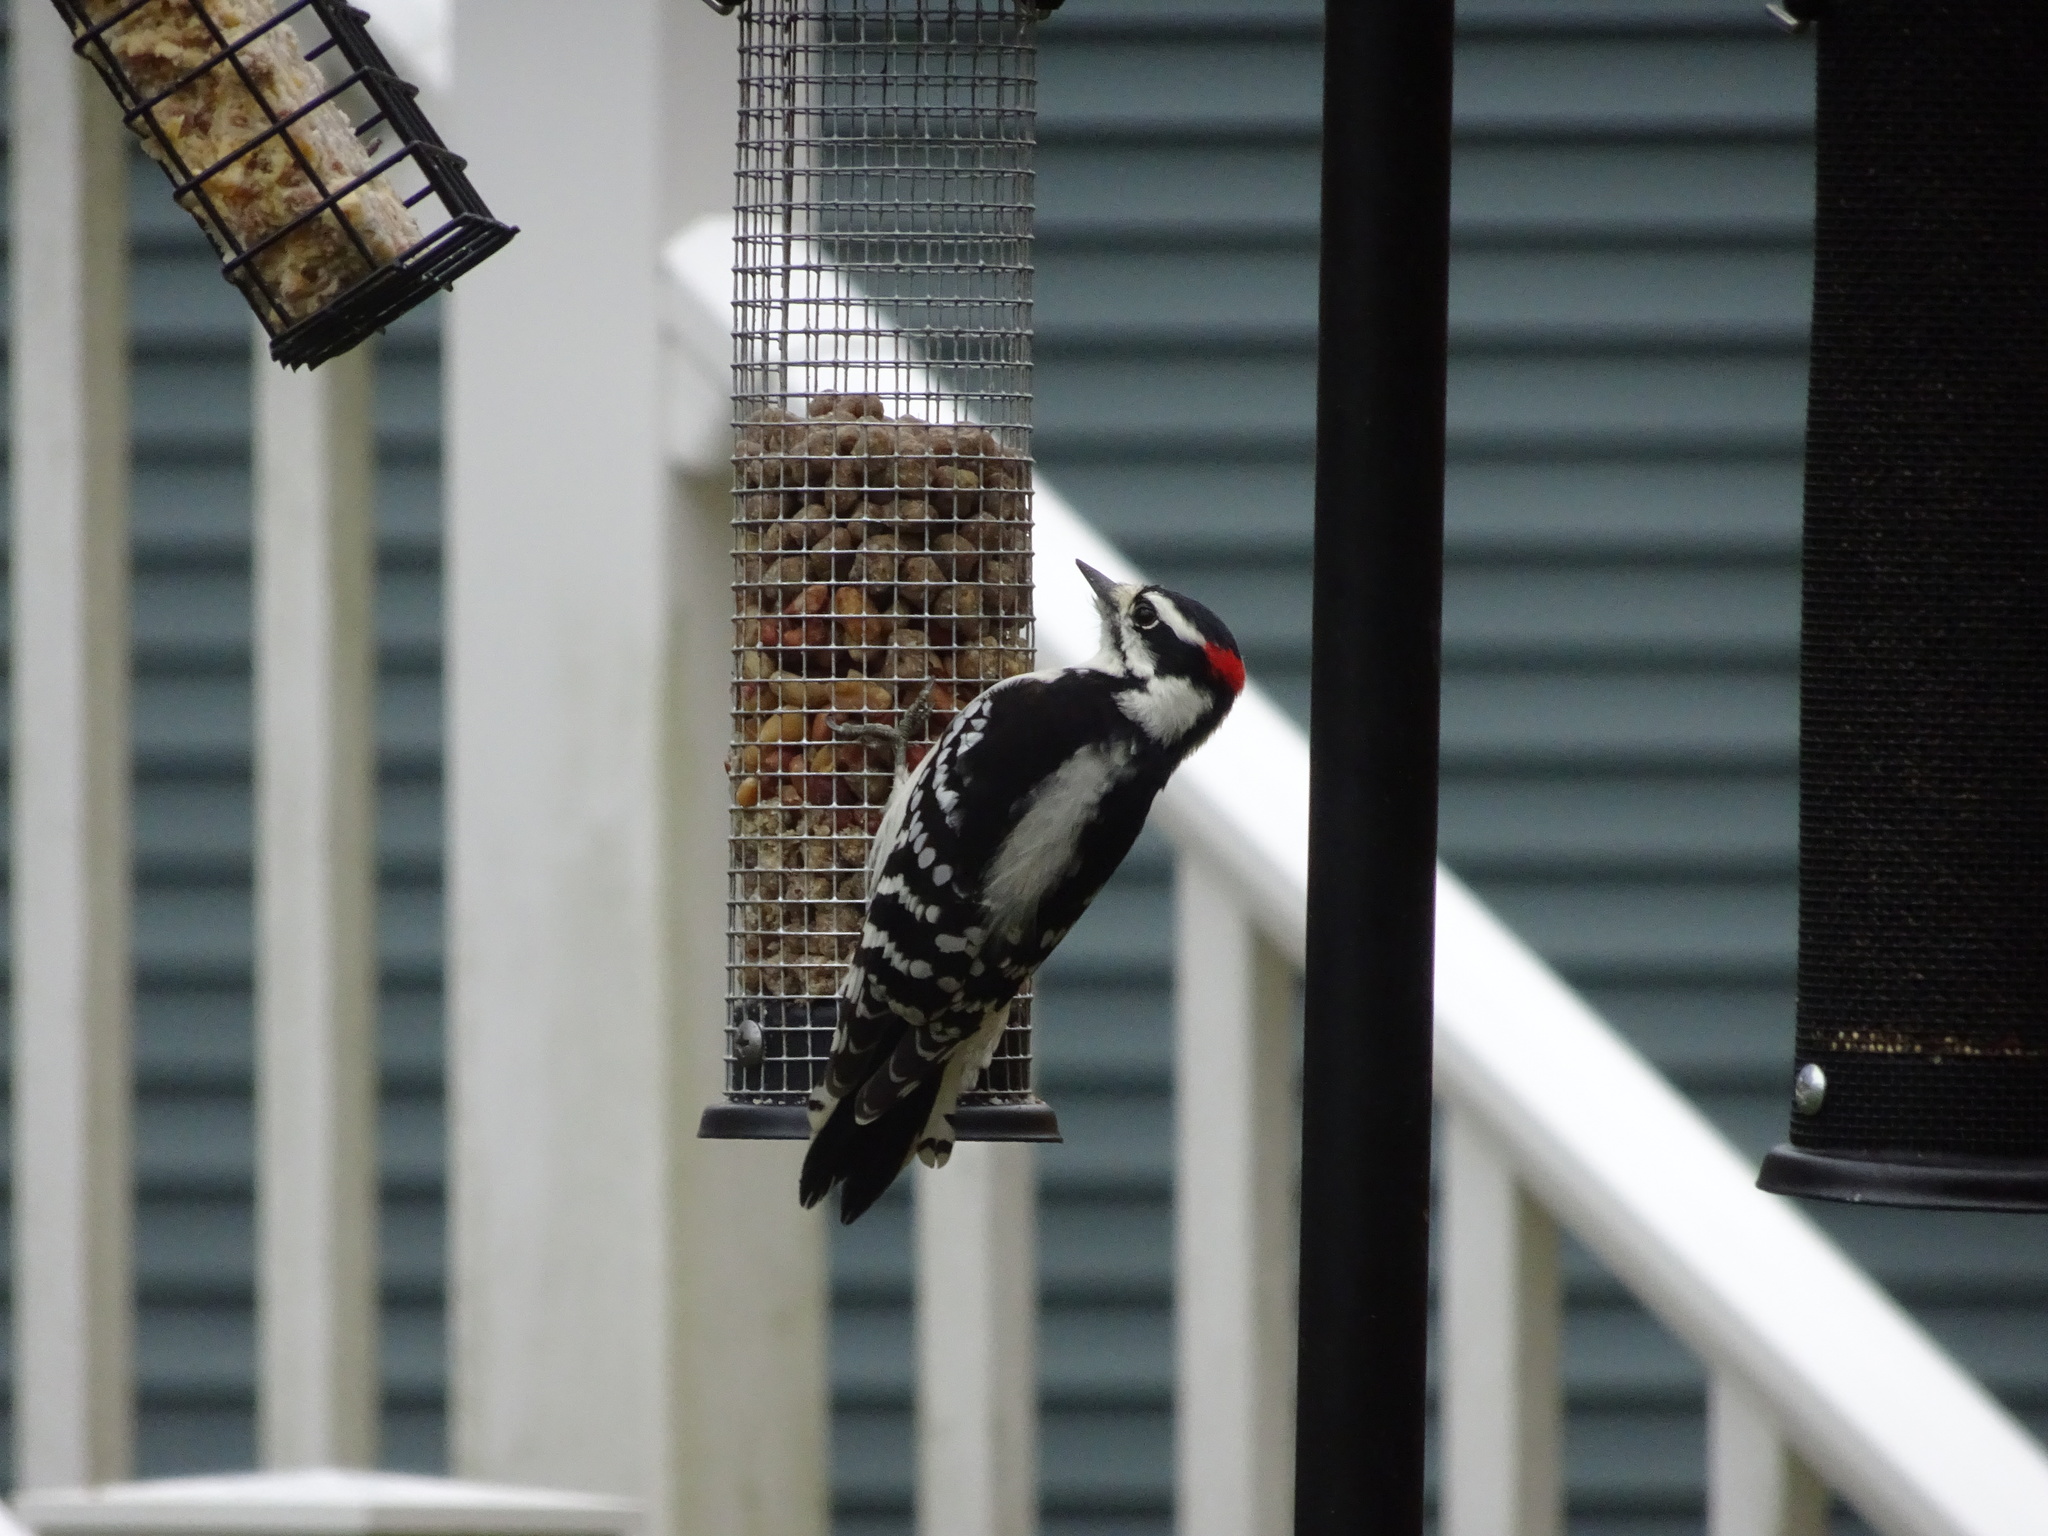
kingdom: Animalia
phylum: Chordata
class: Aves
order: Piciformes
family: Picidae
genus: Dryobates
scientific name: Dryobates pubescens
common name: Downy woodpecker
